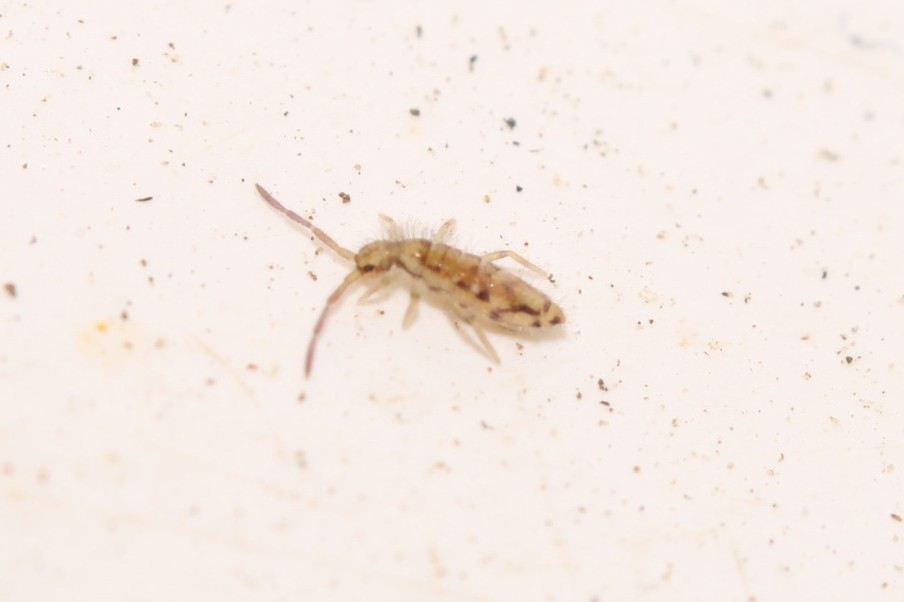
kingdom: Animalia
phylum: Arthropoda
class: Collembola
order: Entomobryomorpha
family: Entomobryidae
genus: Entomobrya
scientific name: Entomobrya intermedia
